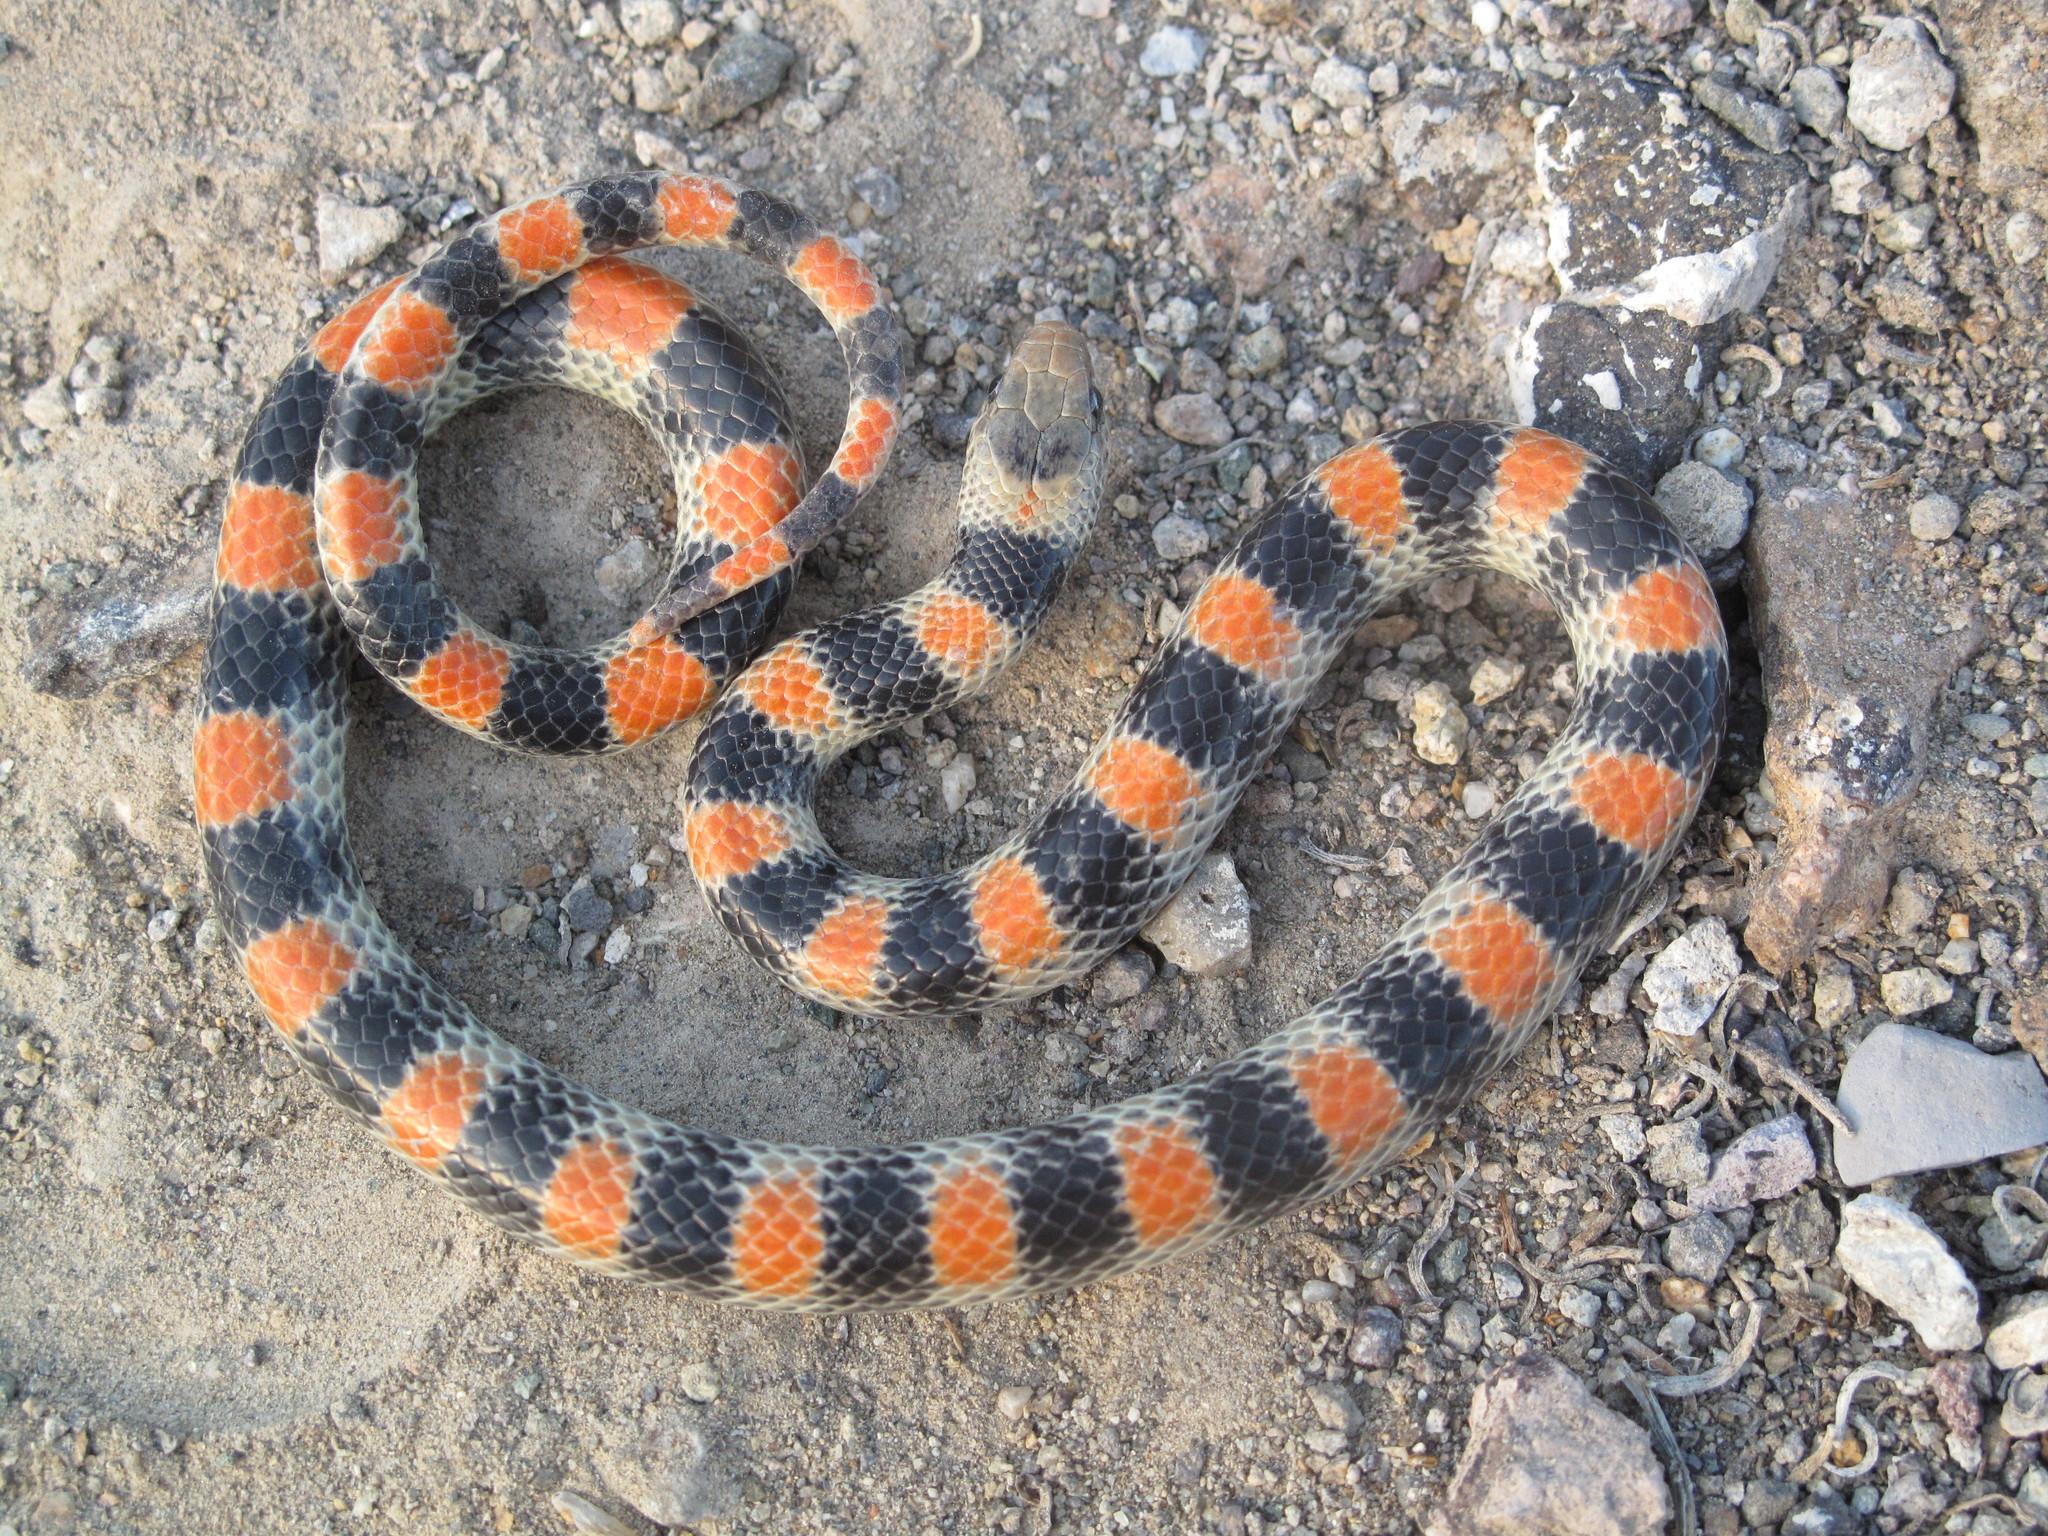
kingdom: Animalia
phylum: Chordata
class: Squamata
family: Colubridae
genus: Sonora
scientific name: Sonora semiannulata
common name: Ground snake
